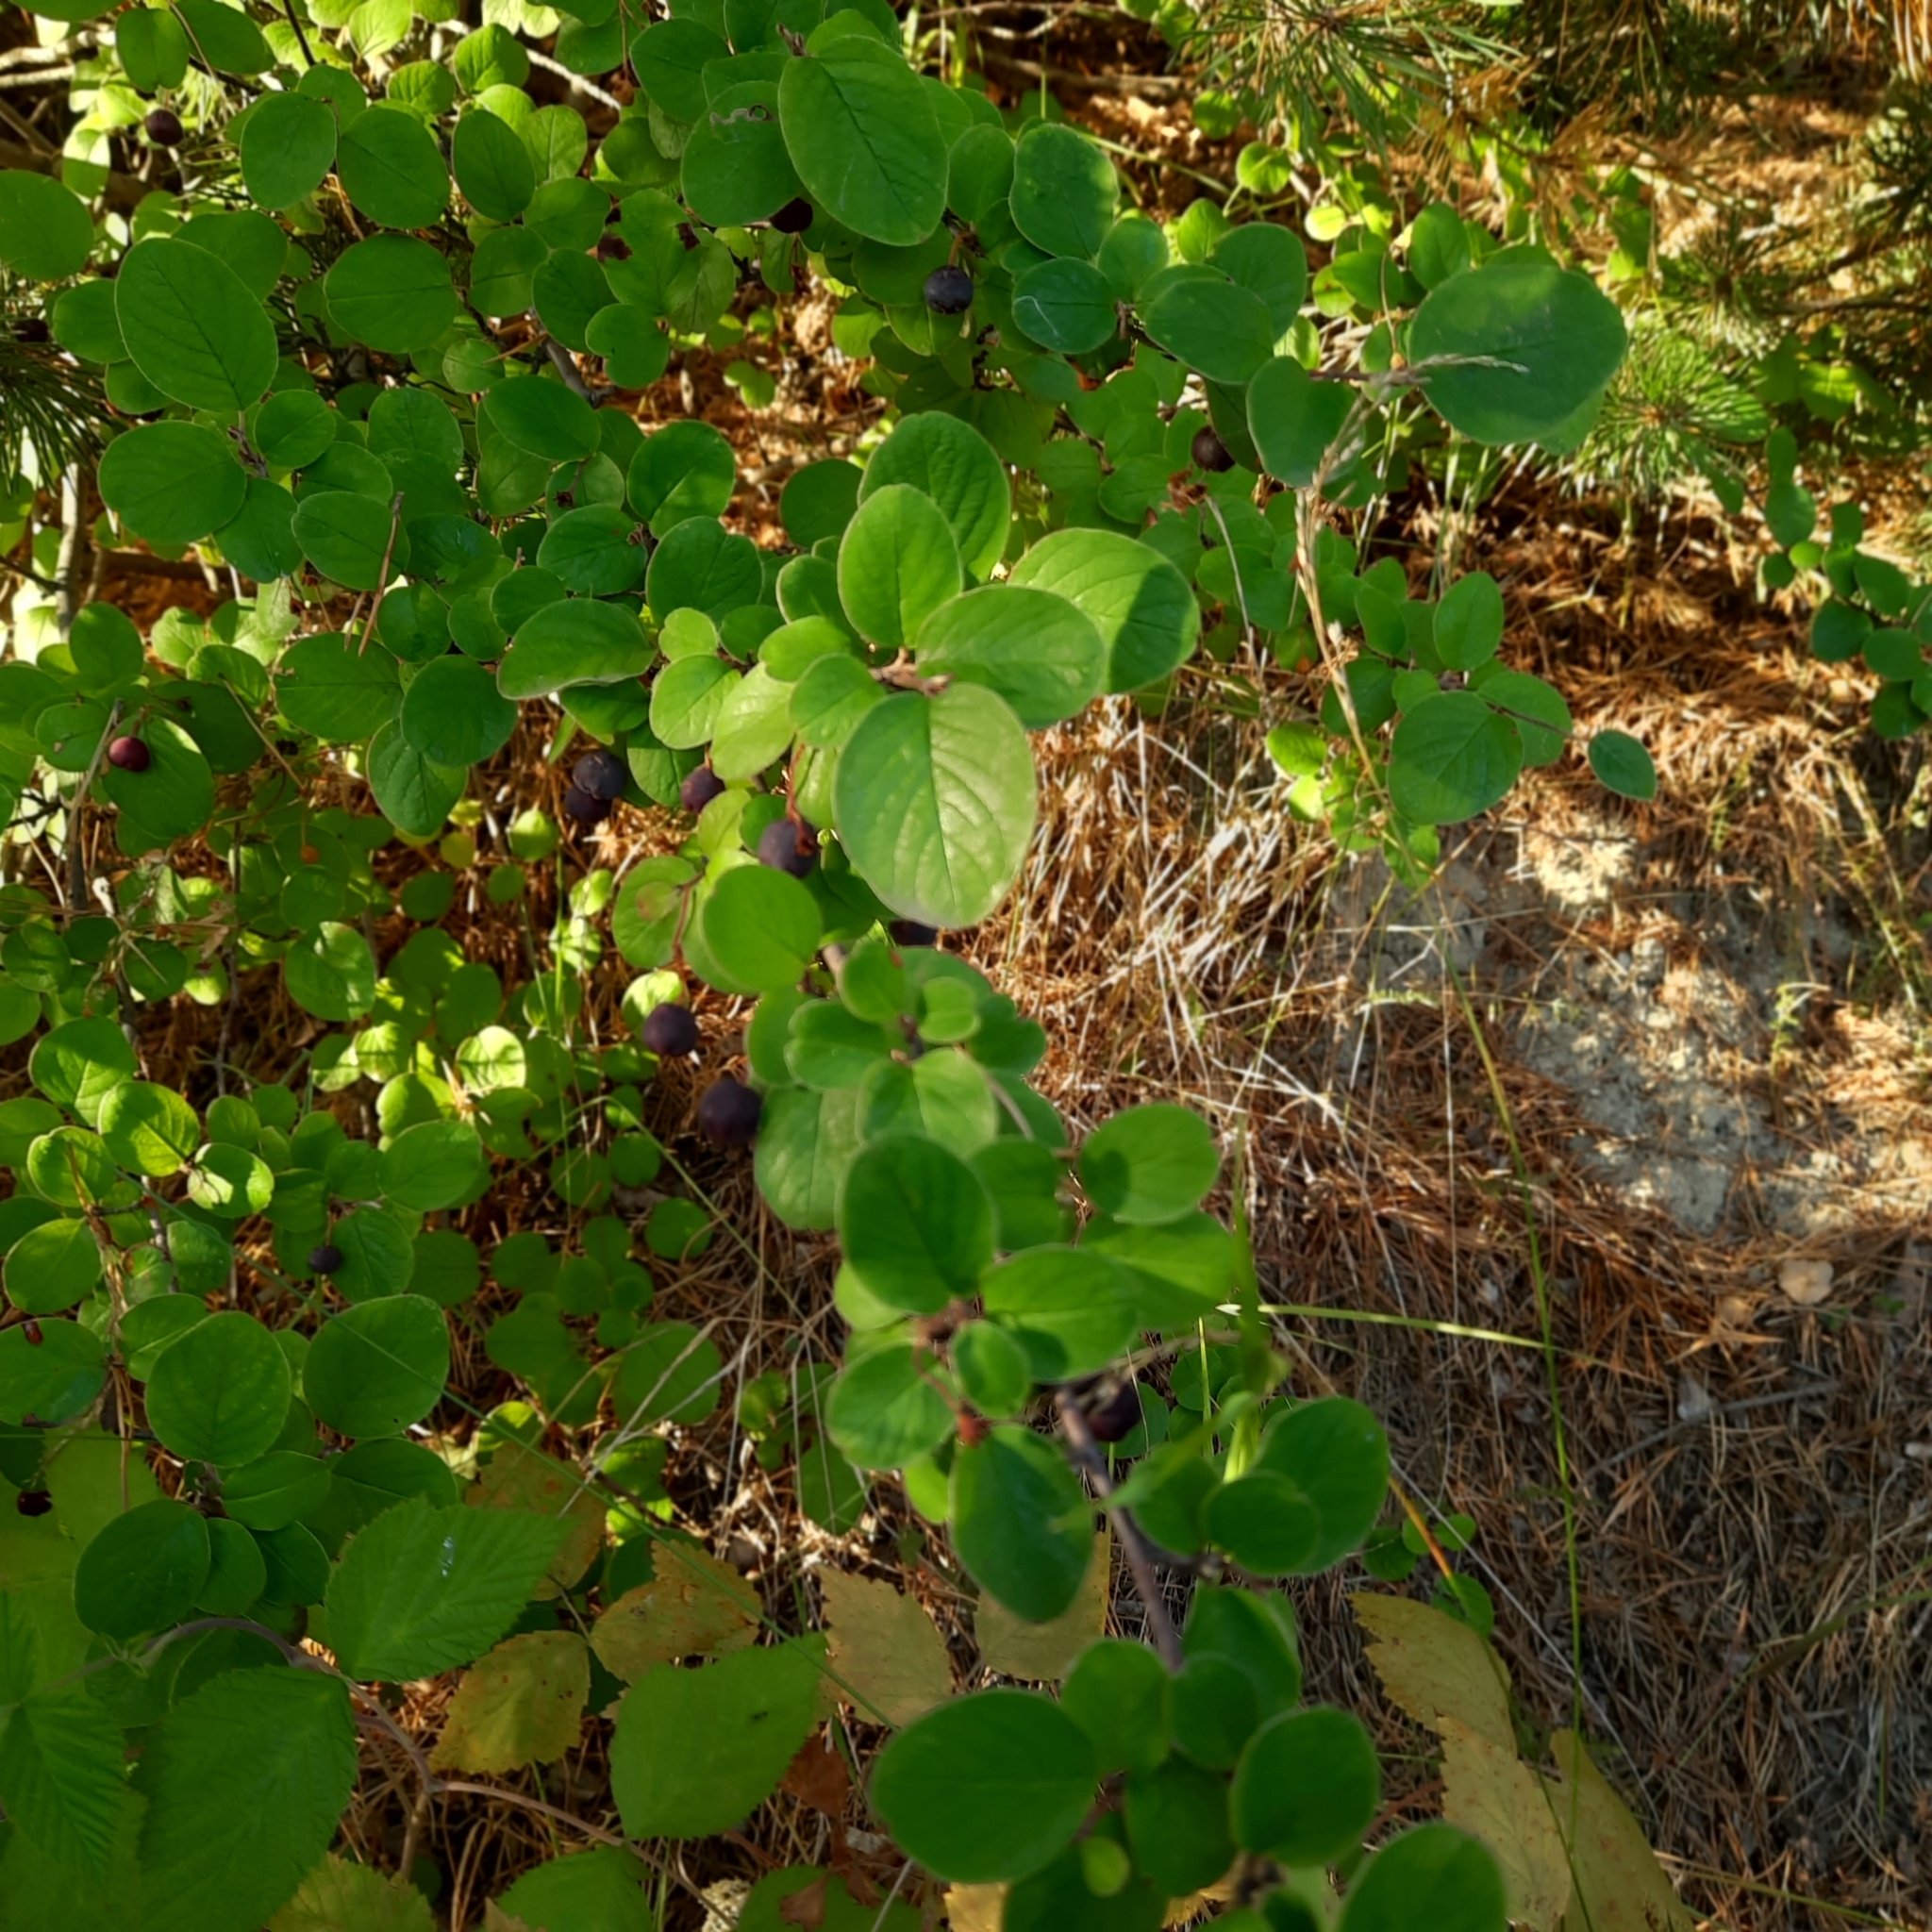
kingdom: Plantae
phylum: Tracheophyta
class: Magnoliopsida
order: Rosales
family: Rosaceae
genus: Cotoneaster
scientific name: Cotoneaster melanocarpus
